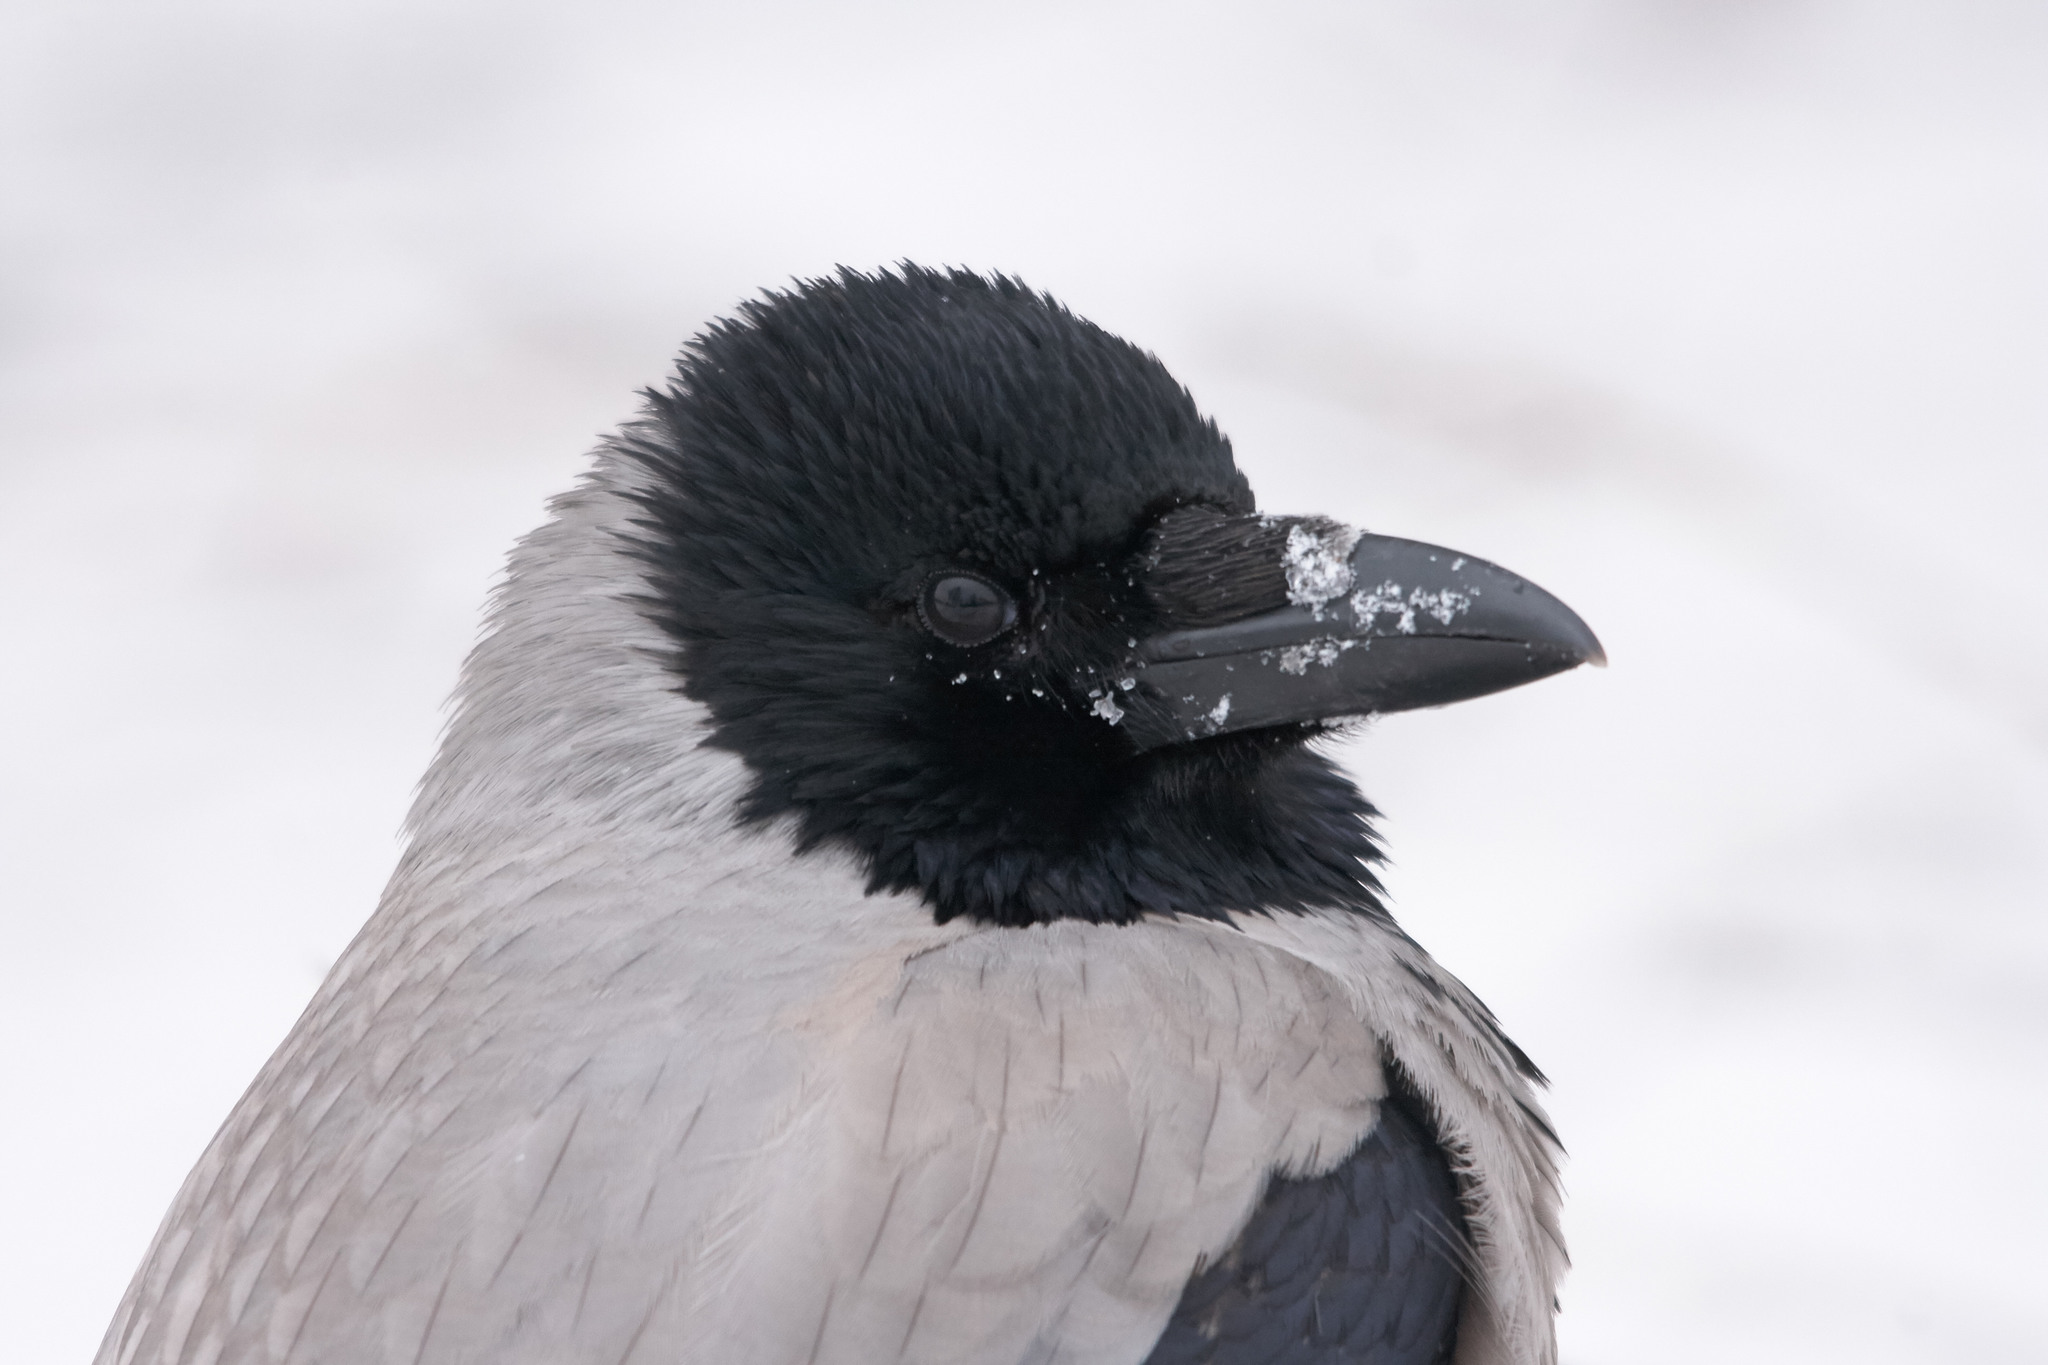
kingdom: Animalia
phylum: Chordata
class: Aves
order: Passeriformes
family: Corvidae
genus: Corvus
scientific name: Corvus cornix
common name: Hooded crow
